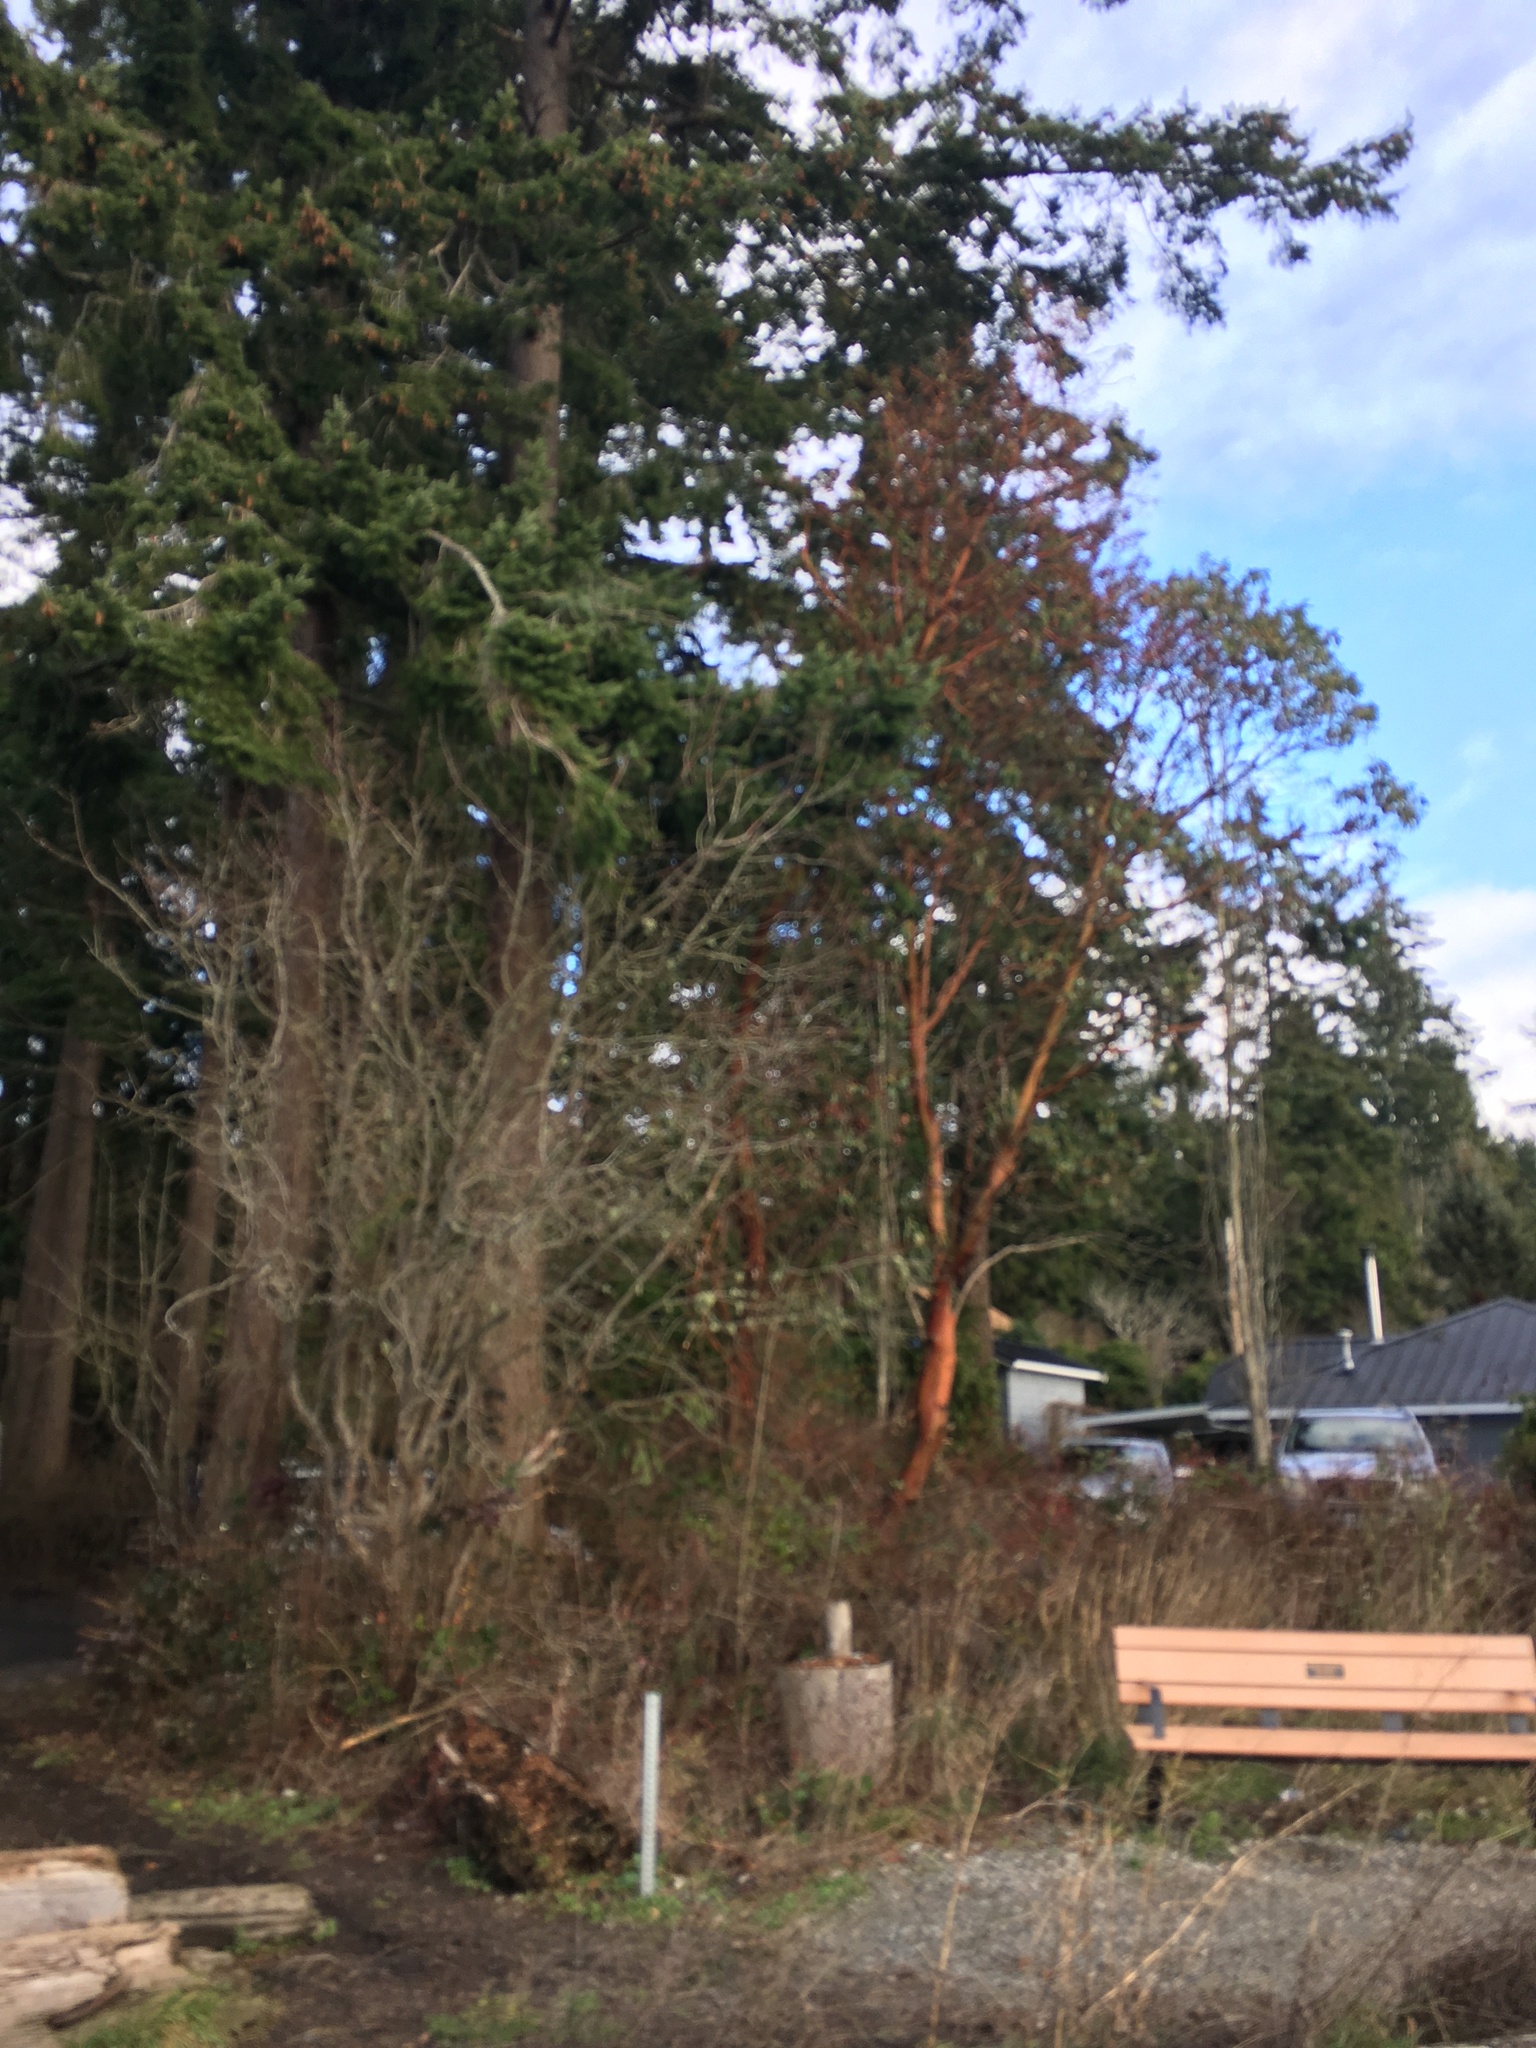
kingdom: Plantae
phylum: Tracheophyta
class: Magnoliopsida
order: Ericales
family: Ericaceae
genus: Arbutus
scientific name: Arbutus menziesii
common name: Pacific madrone
